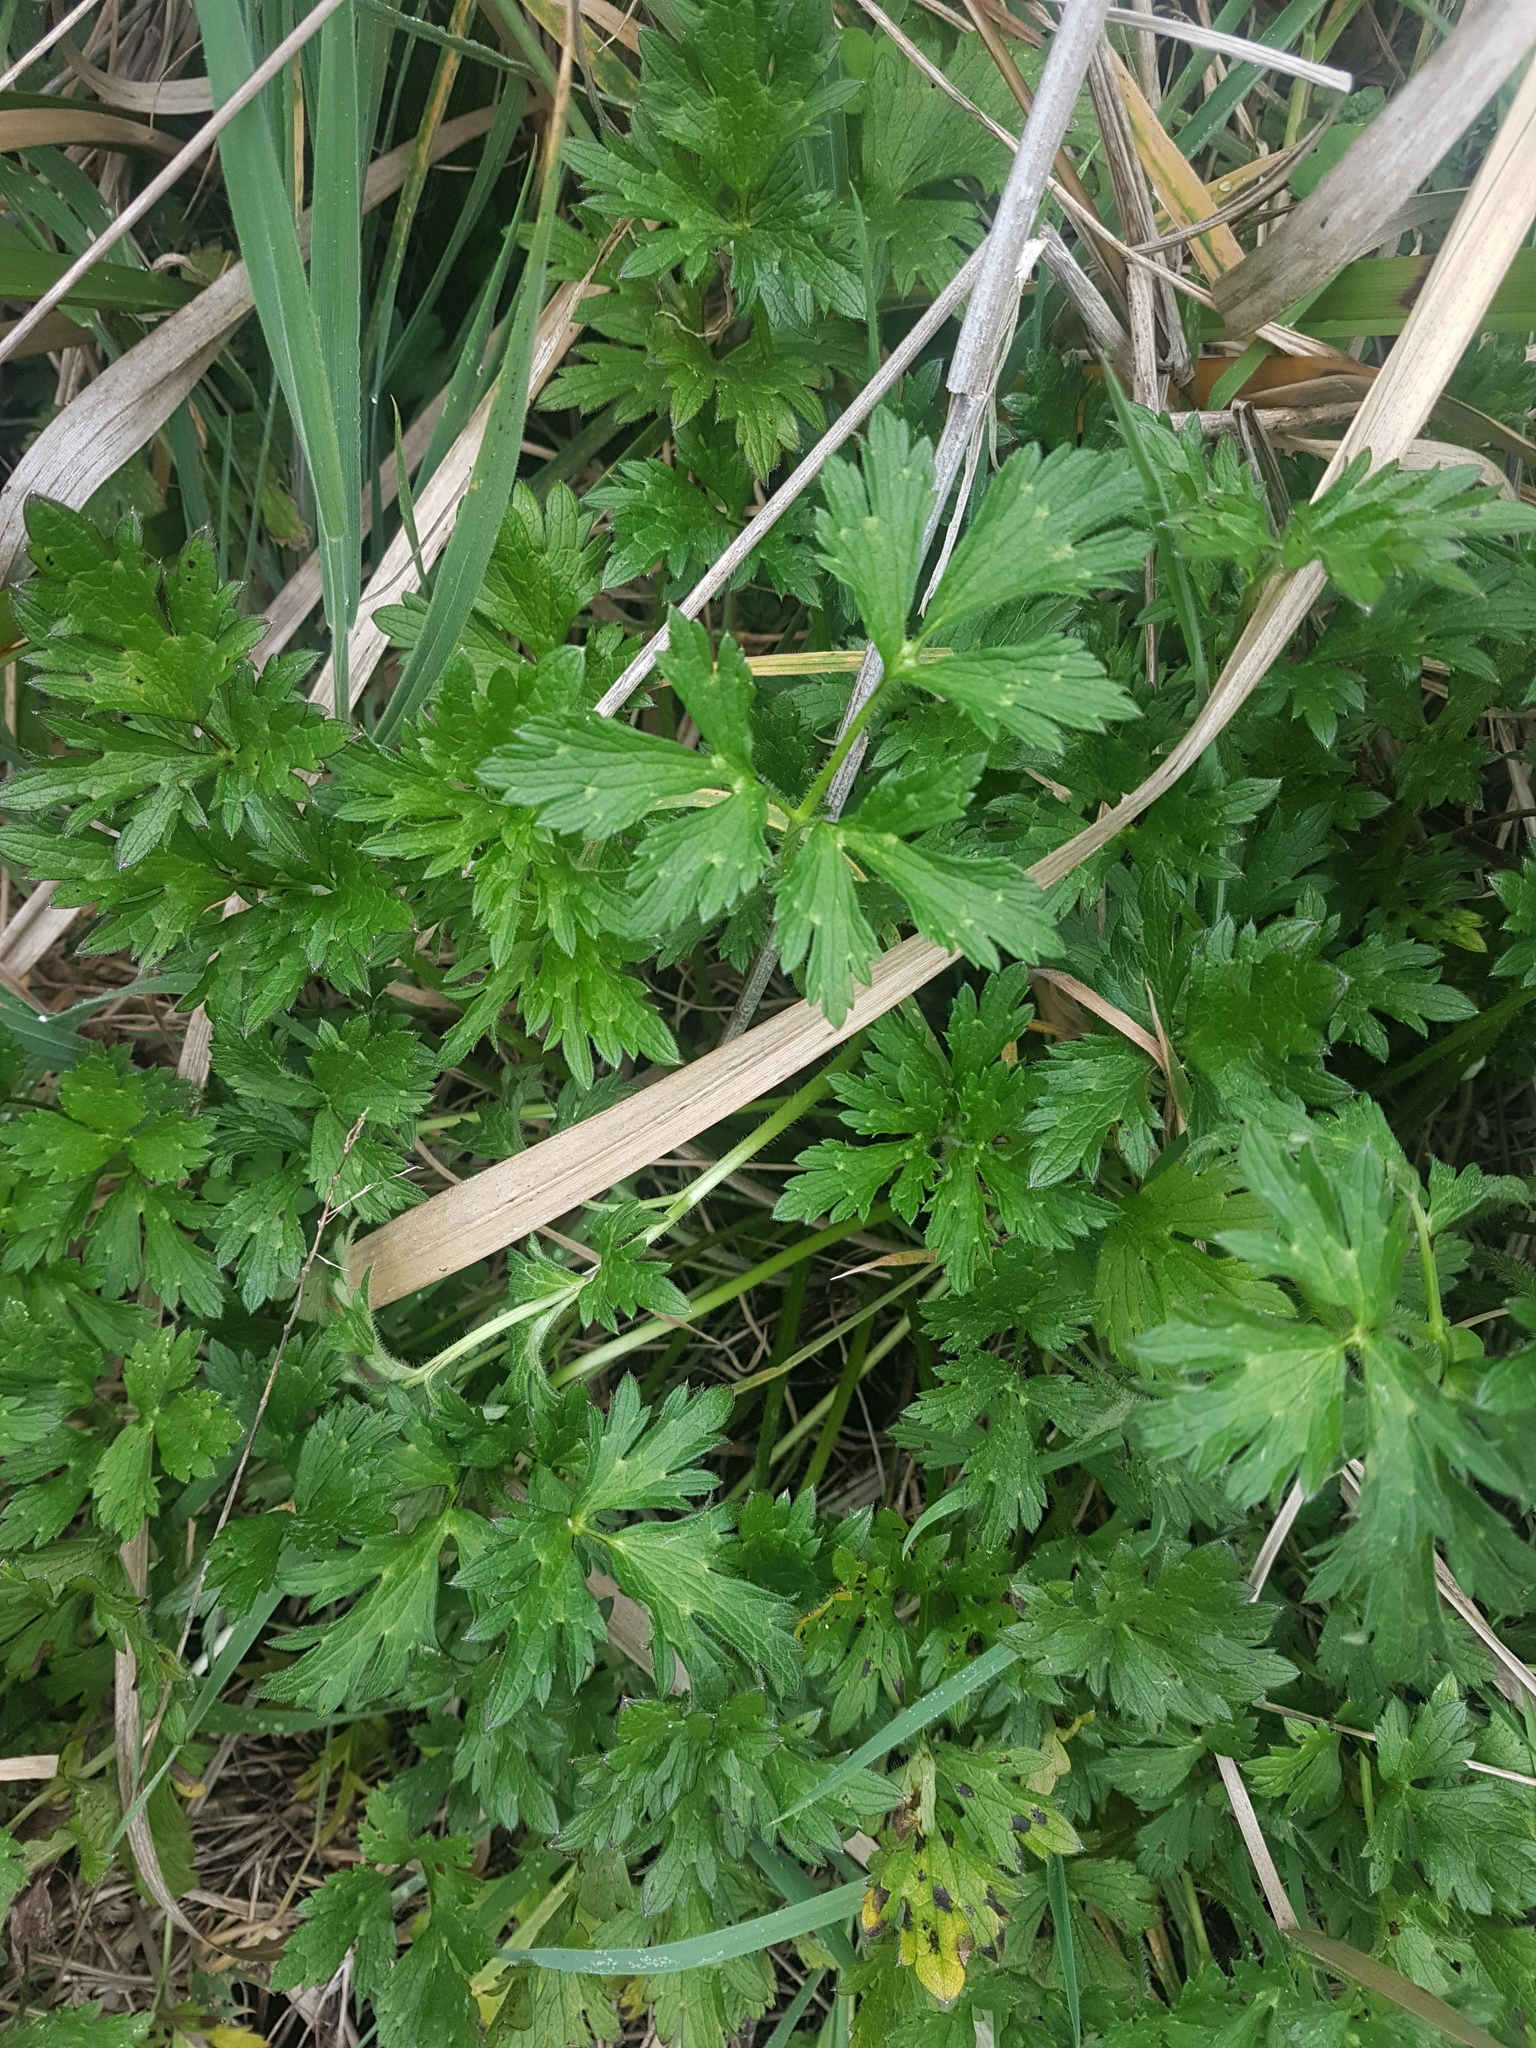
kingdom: Plantae
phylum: Tracheophyta
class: Magnoliopsida
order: Ranunculales
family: Ranunculaceae
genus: Ranunculus
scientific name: Ranunculus repens
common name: Creeping buttercup
